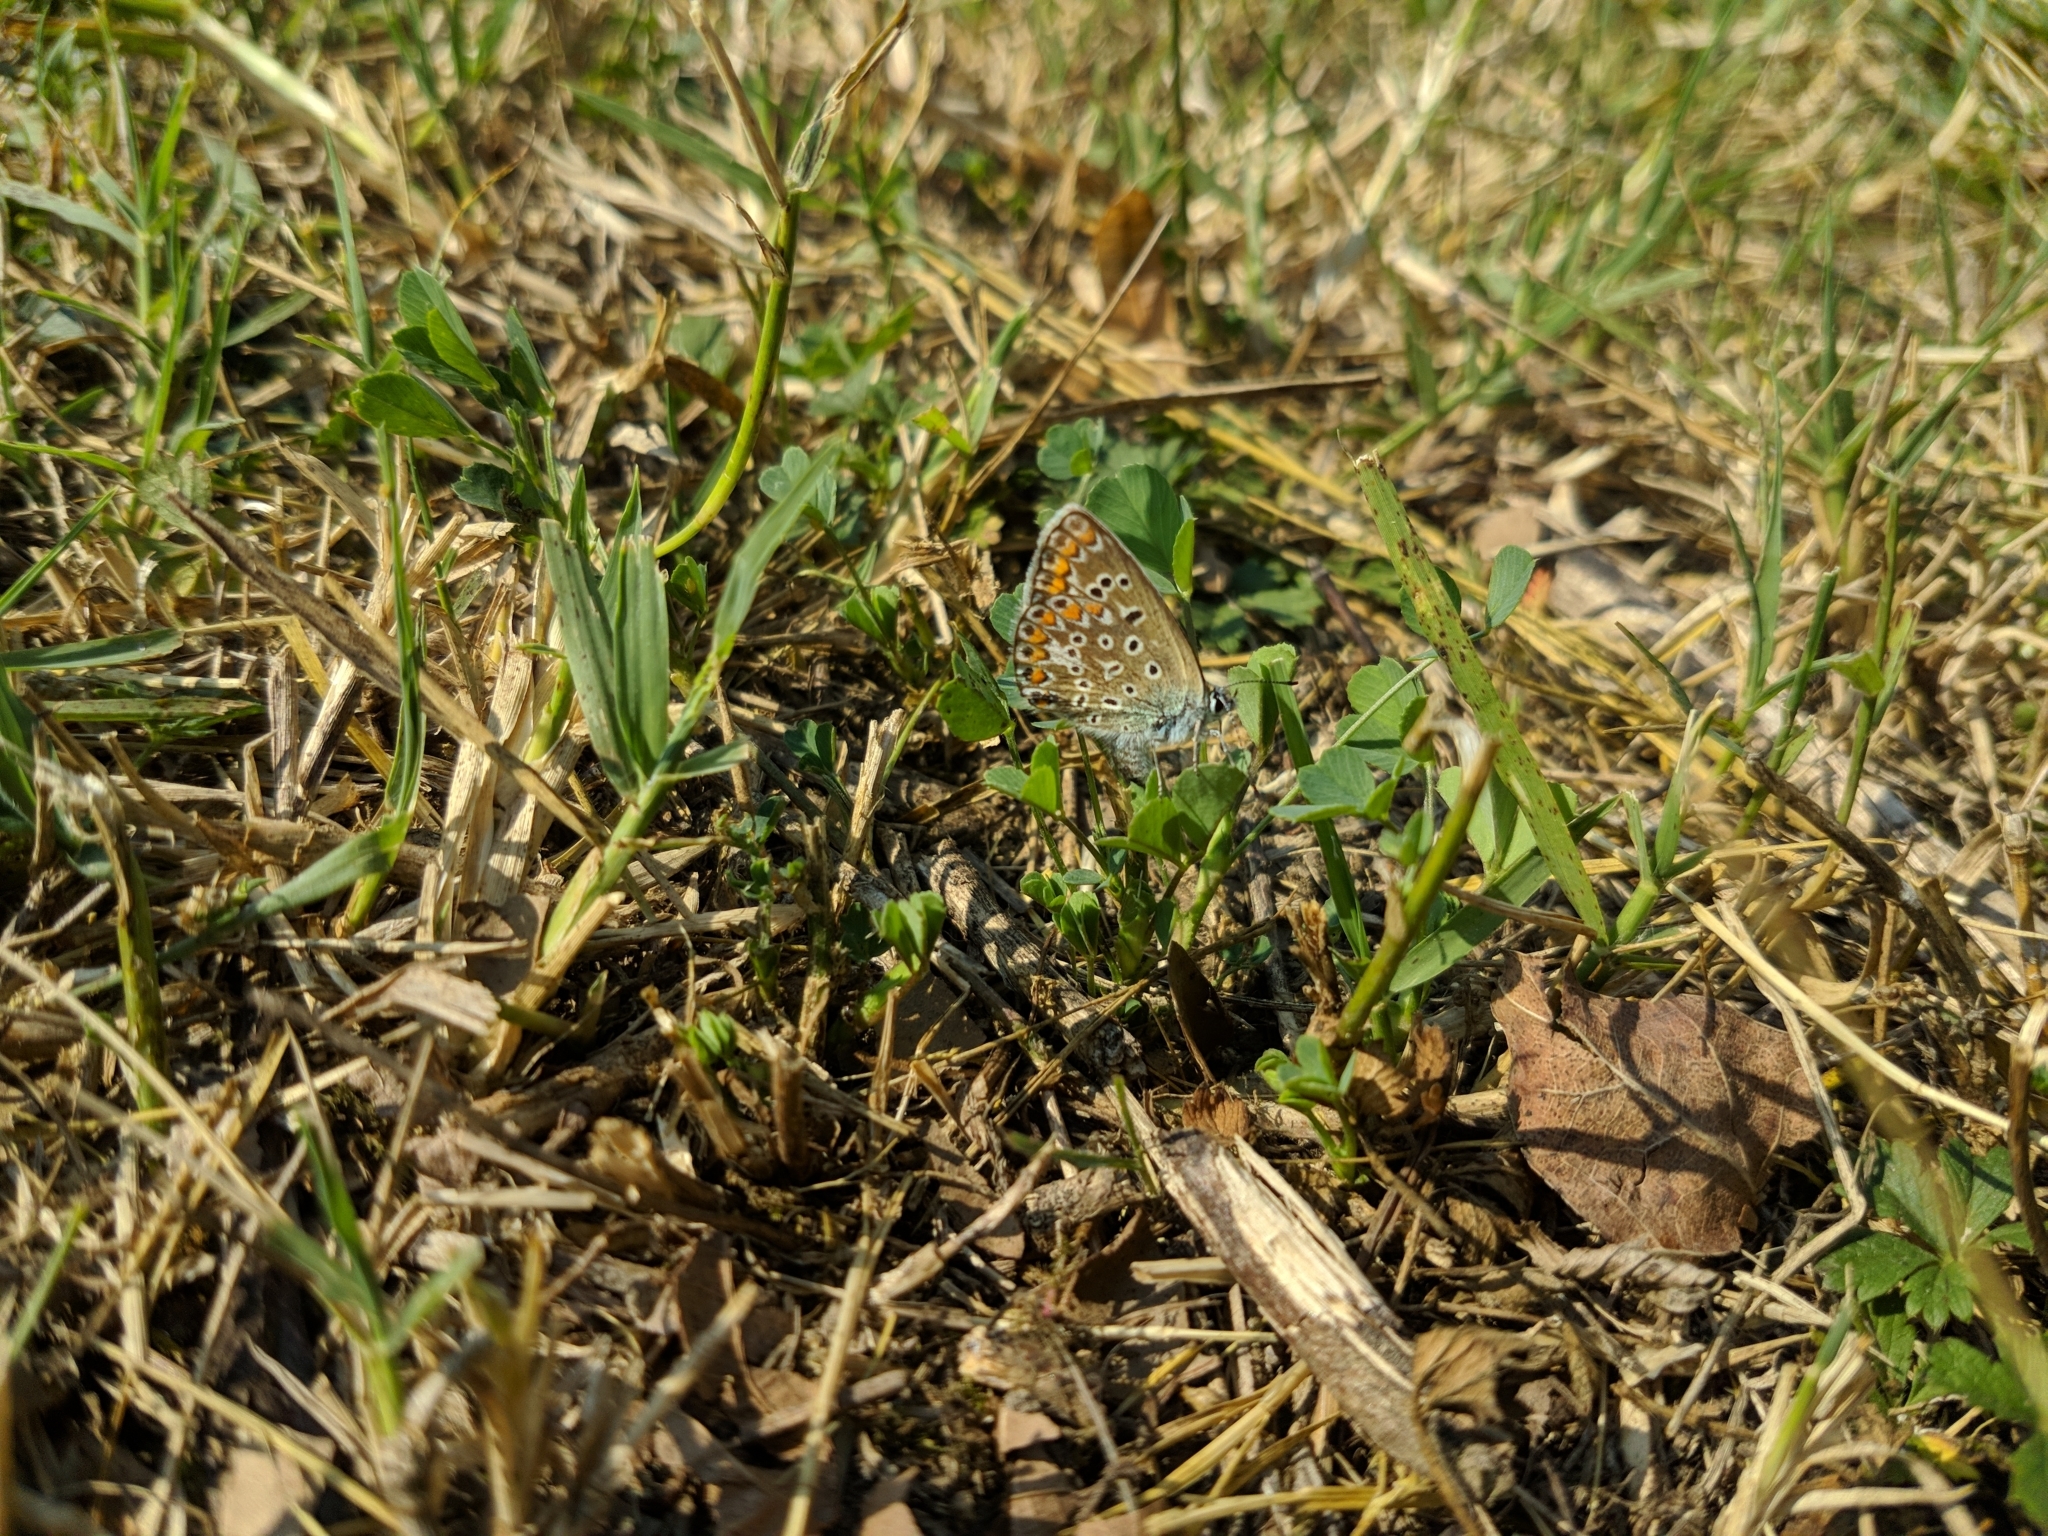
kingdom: Animalia
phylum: Arthropoda
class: Insecta
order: Lepidoptera
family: Lycaenidae
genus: Polyommatus
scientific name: Polyommatus icarus
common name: Common blue
